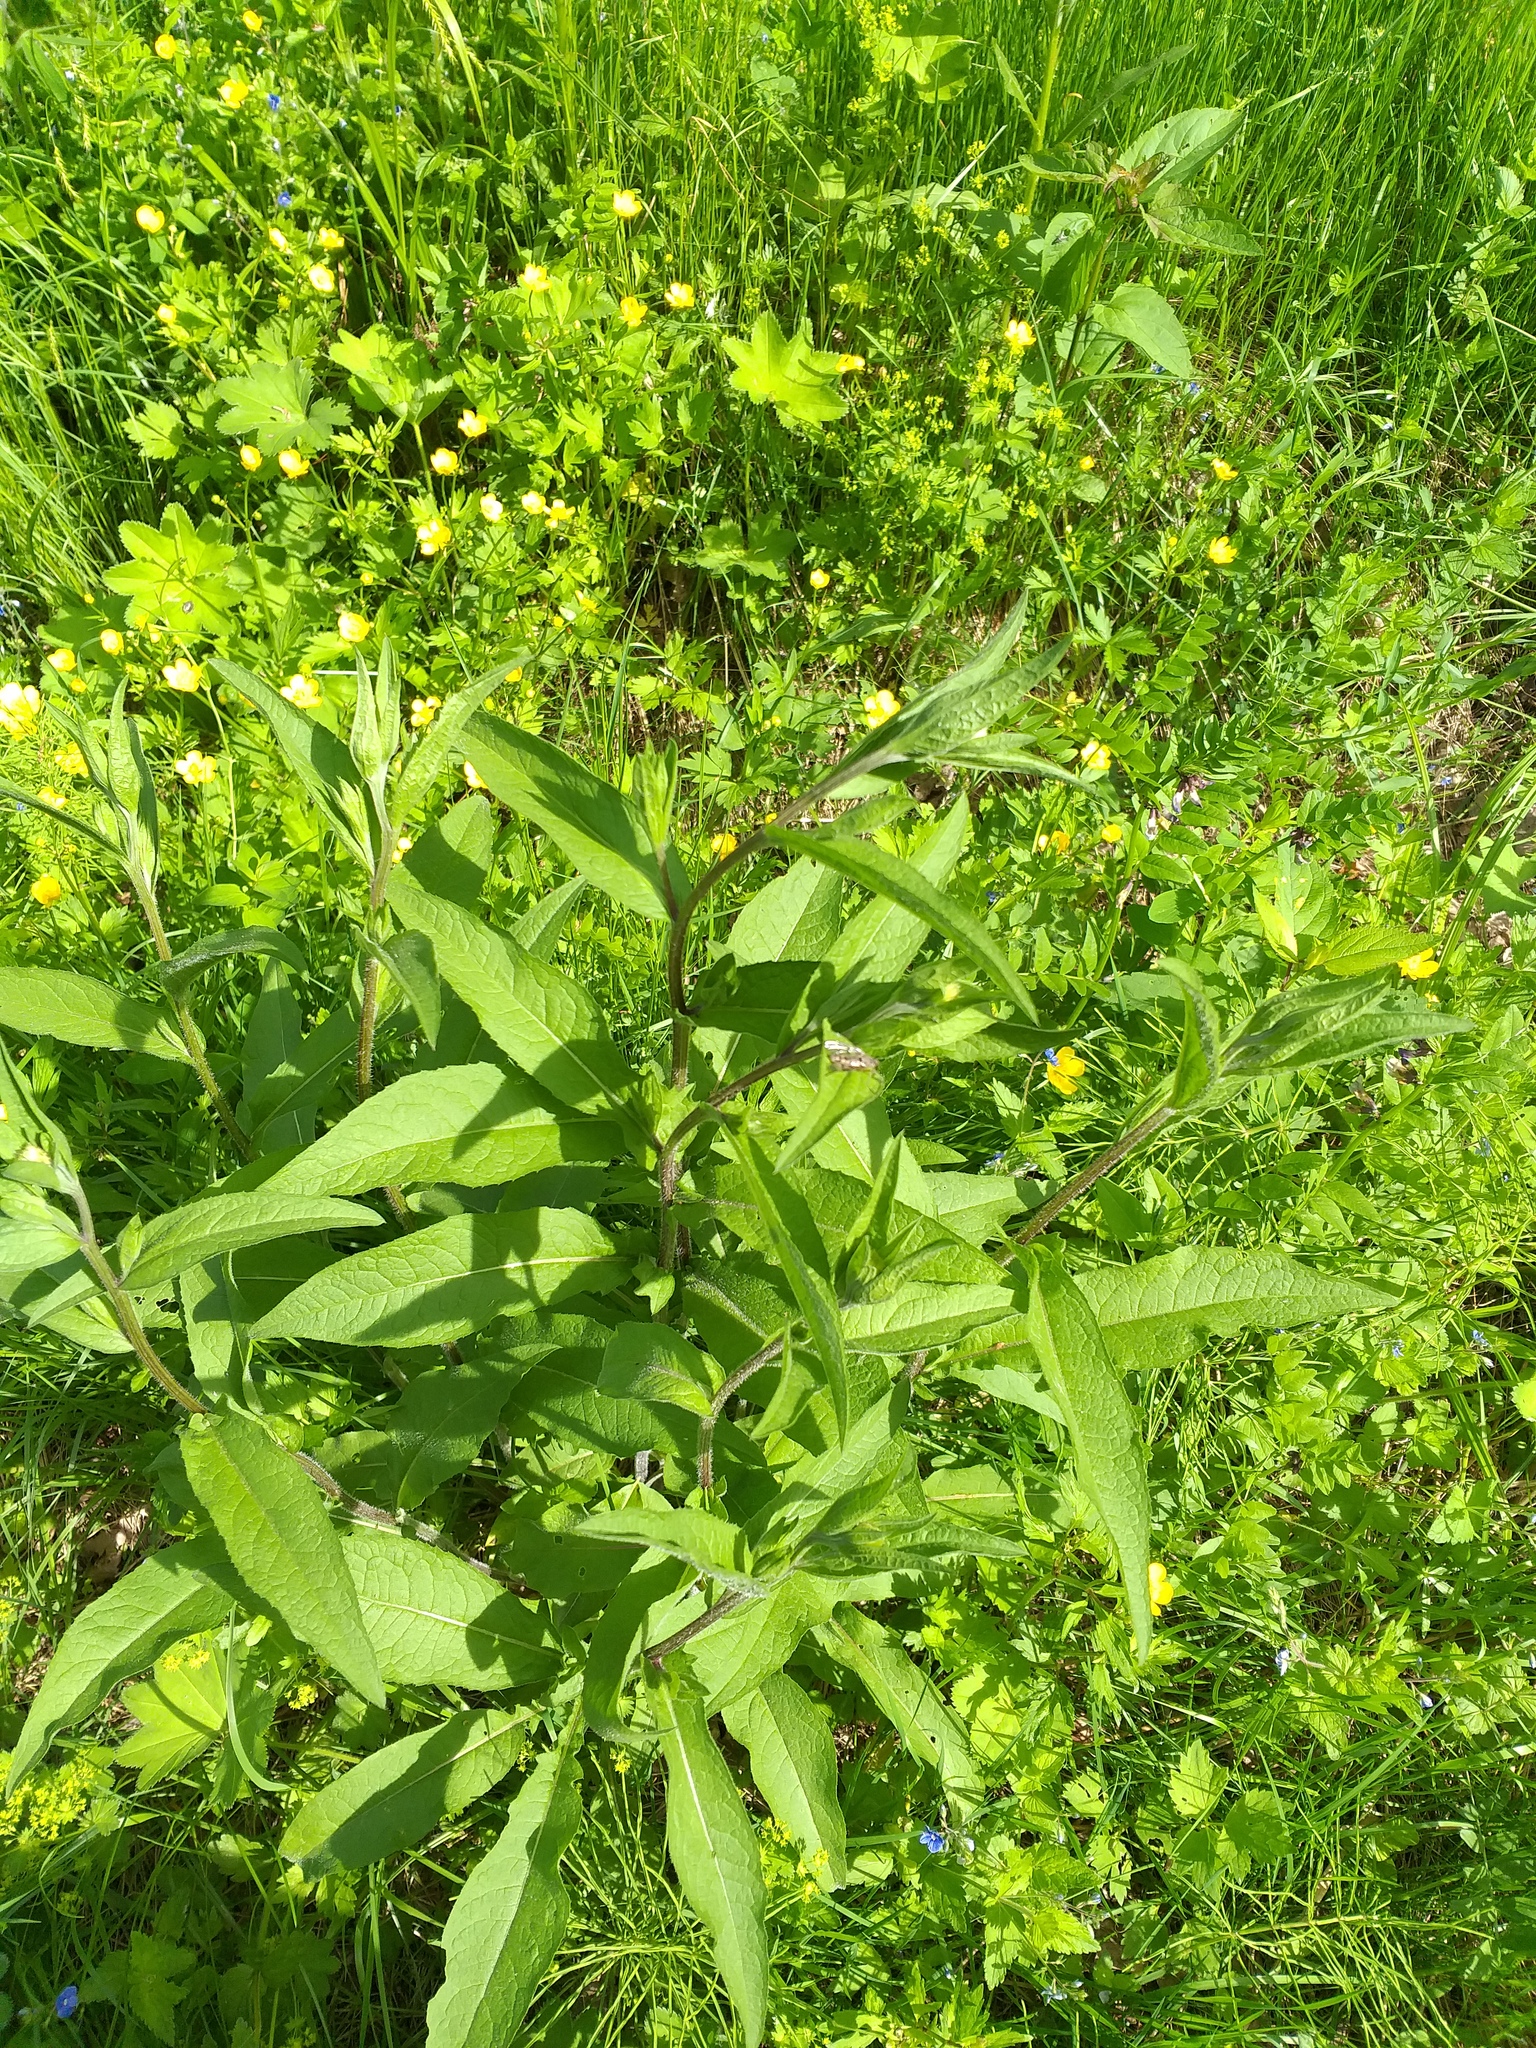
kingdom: Plantae
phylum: Tracheophyta
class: Magnoliopsida
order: Asterales
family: Asteraceae
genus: Centaurea
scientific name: Centaurea phrygia
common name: Wig knapweed
